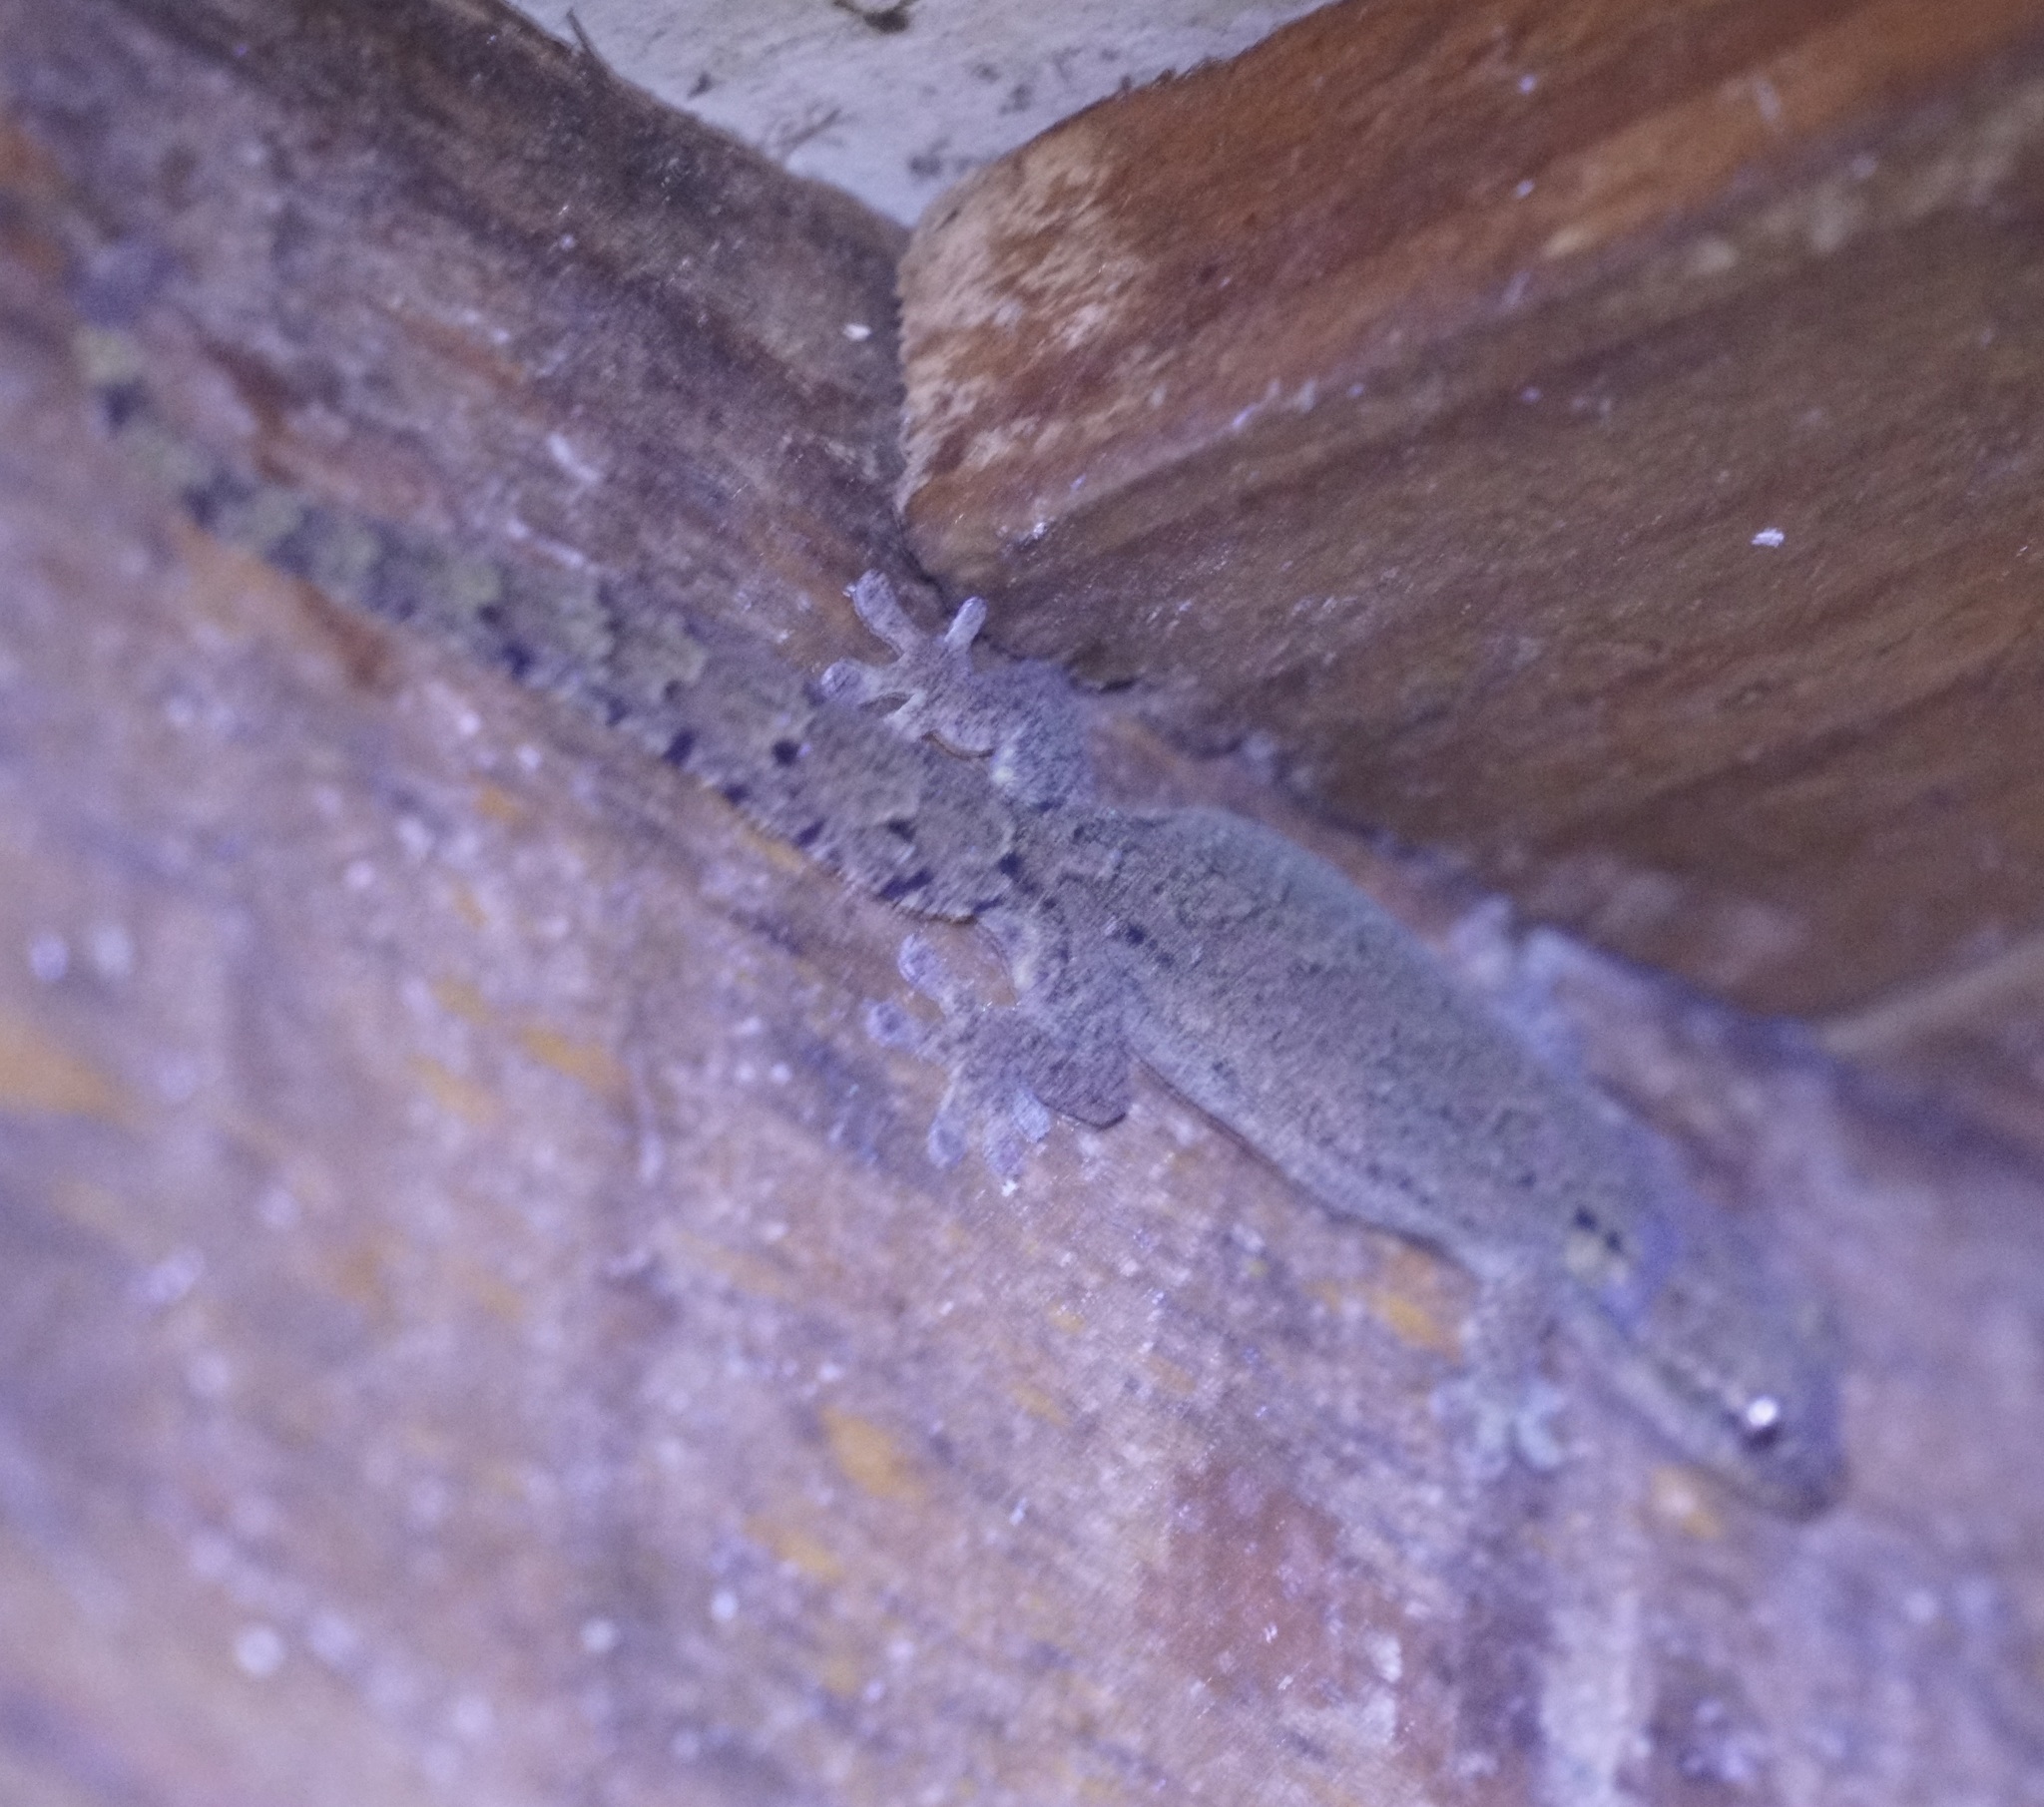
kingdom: Animalia
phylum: Chordata
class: Squamata
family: Gekkonidae
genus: Lepidodactylus
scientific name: Lepidodactylus lugubris
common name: Mourning gecko
